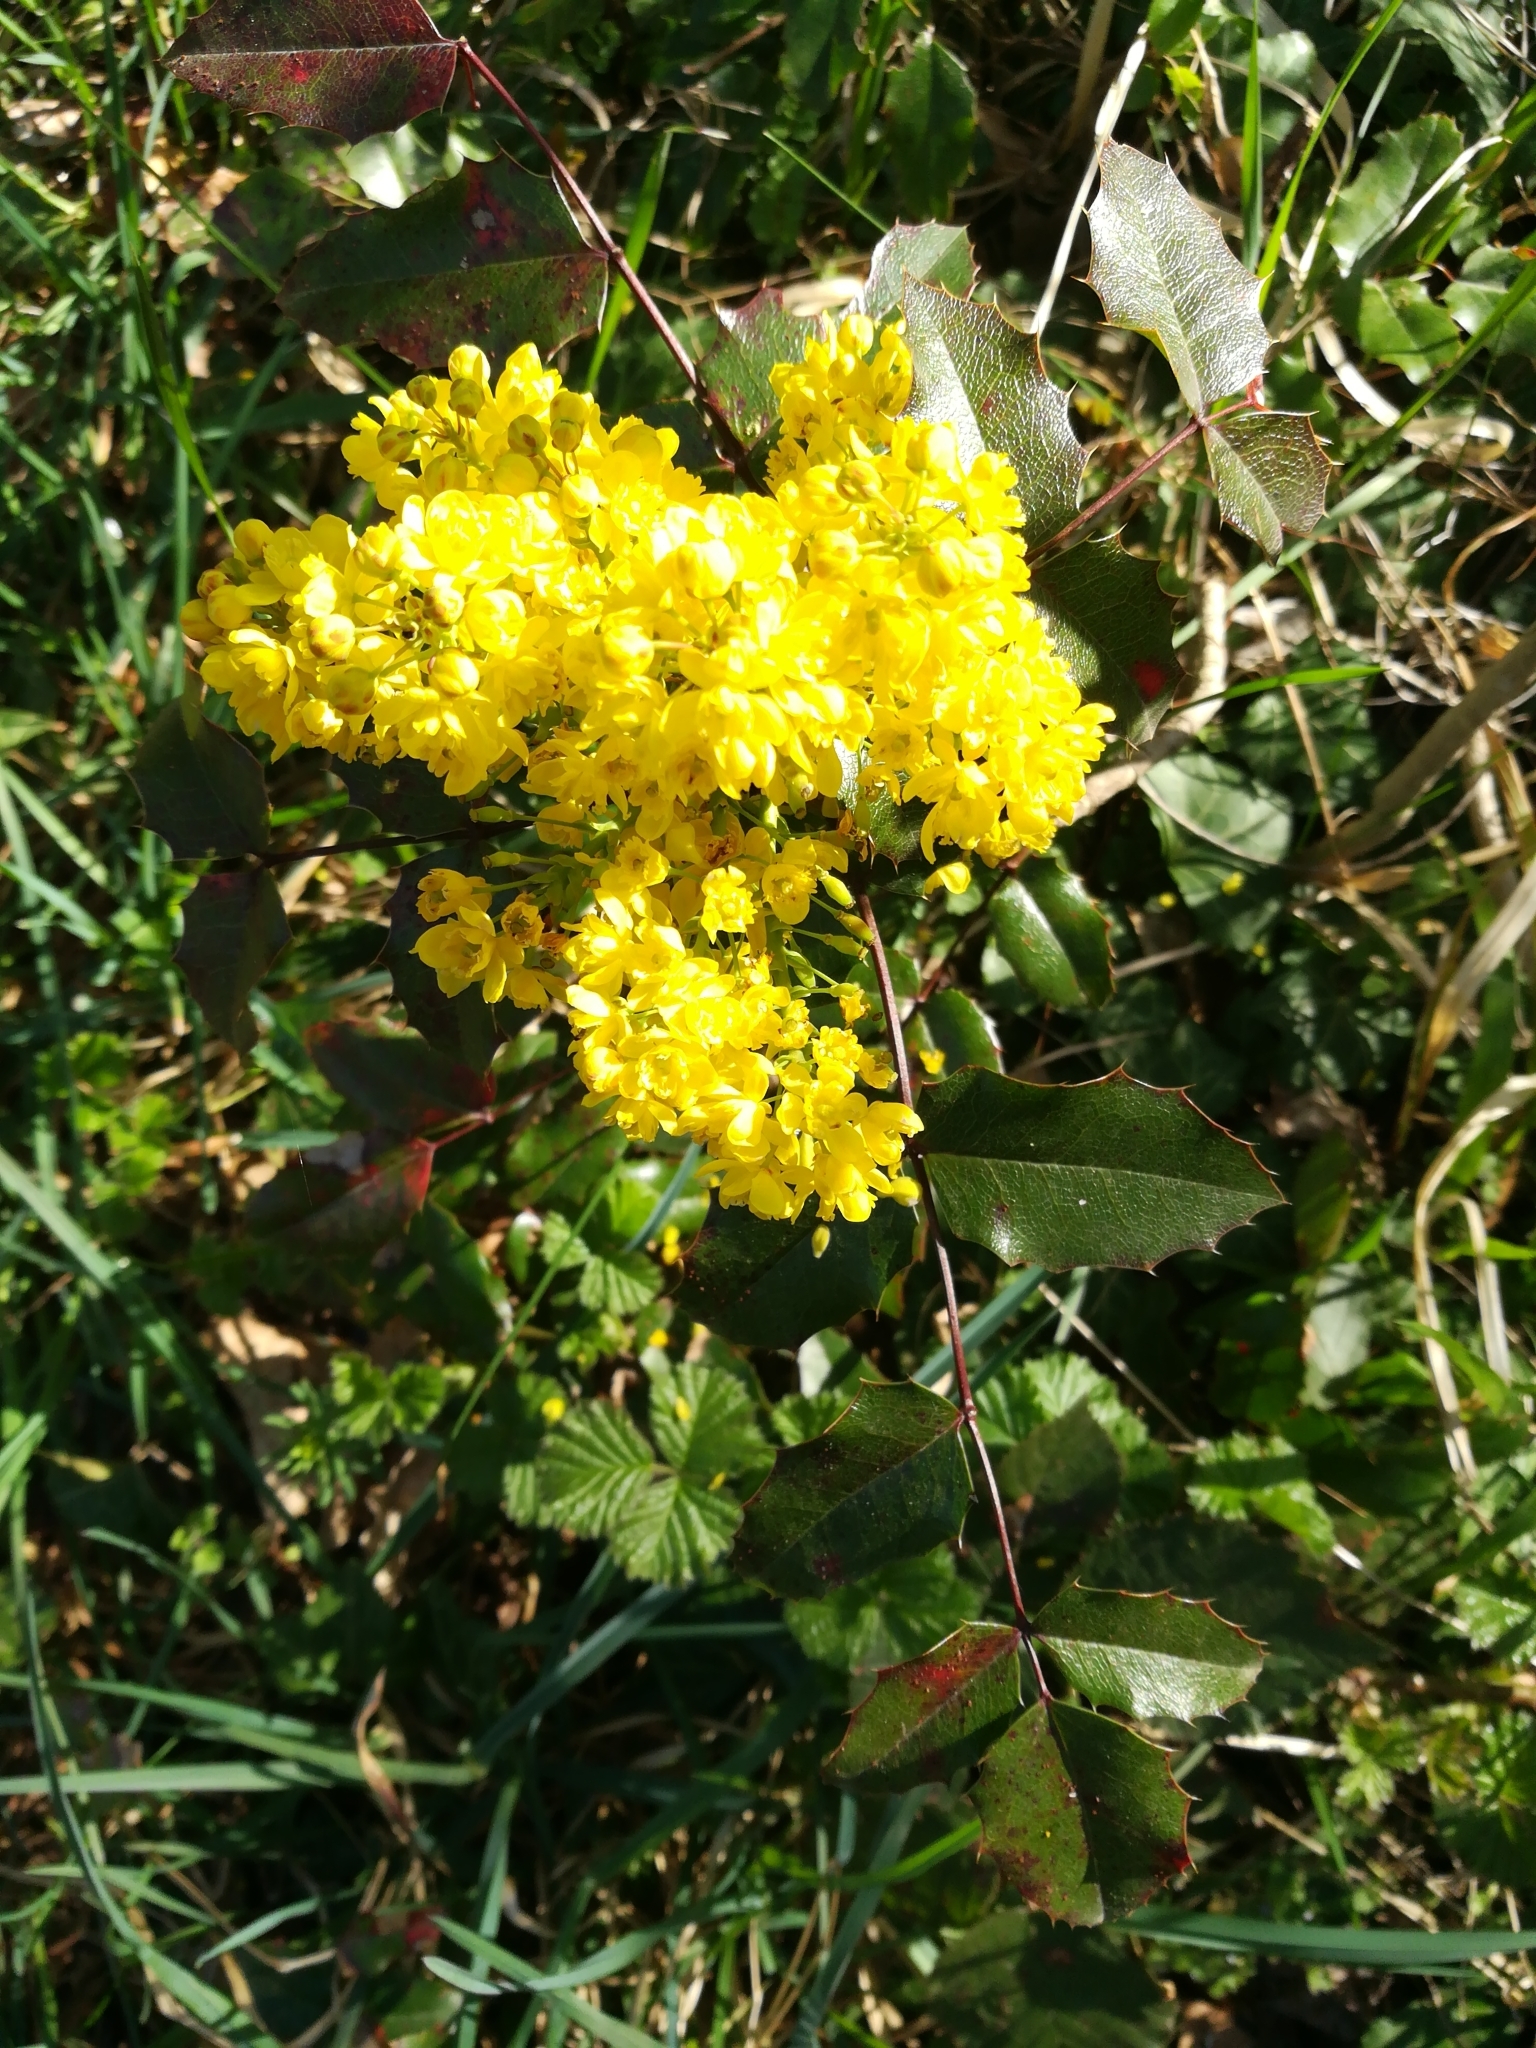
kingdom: Plantae
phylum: Tracheophyta
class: Magnoliopsida
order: Ranunculales
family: Berberidaceae
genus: Mahonia
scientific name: Mahonia aquifolium
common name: Oregon-grape
